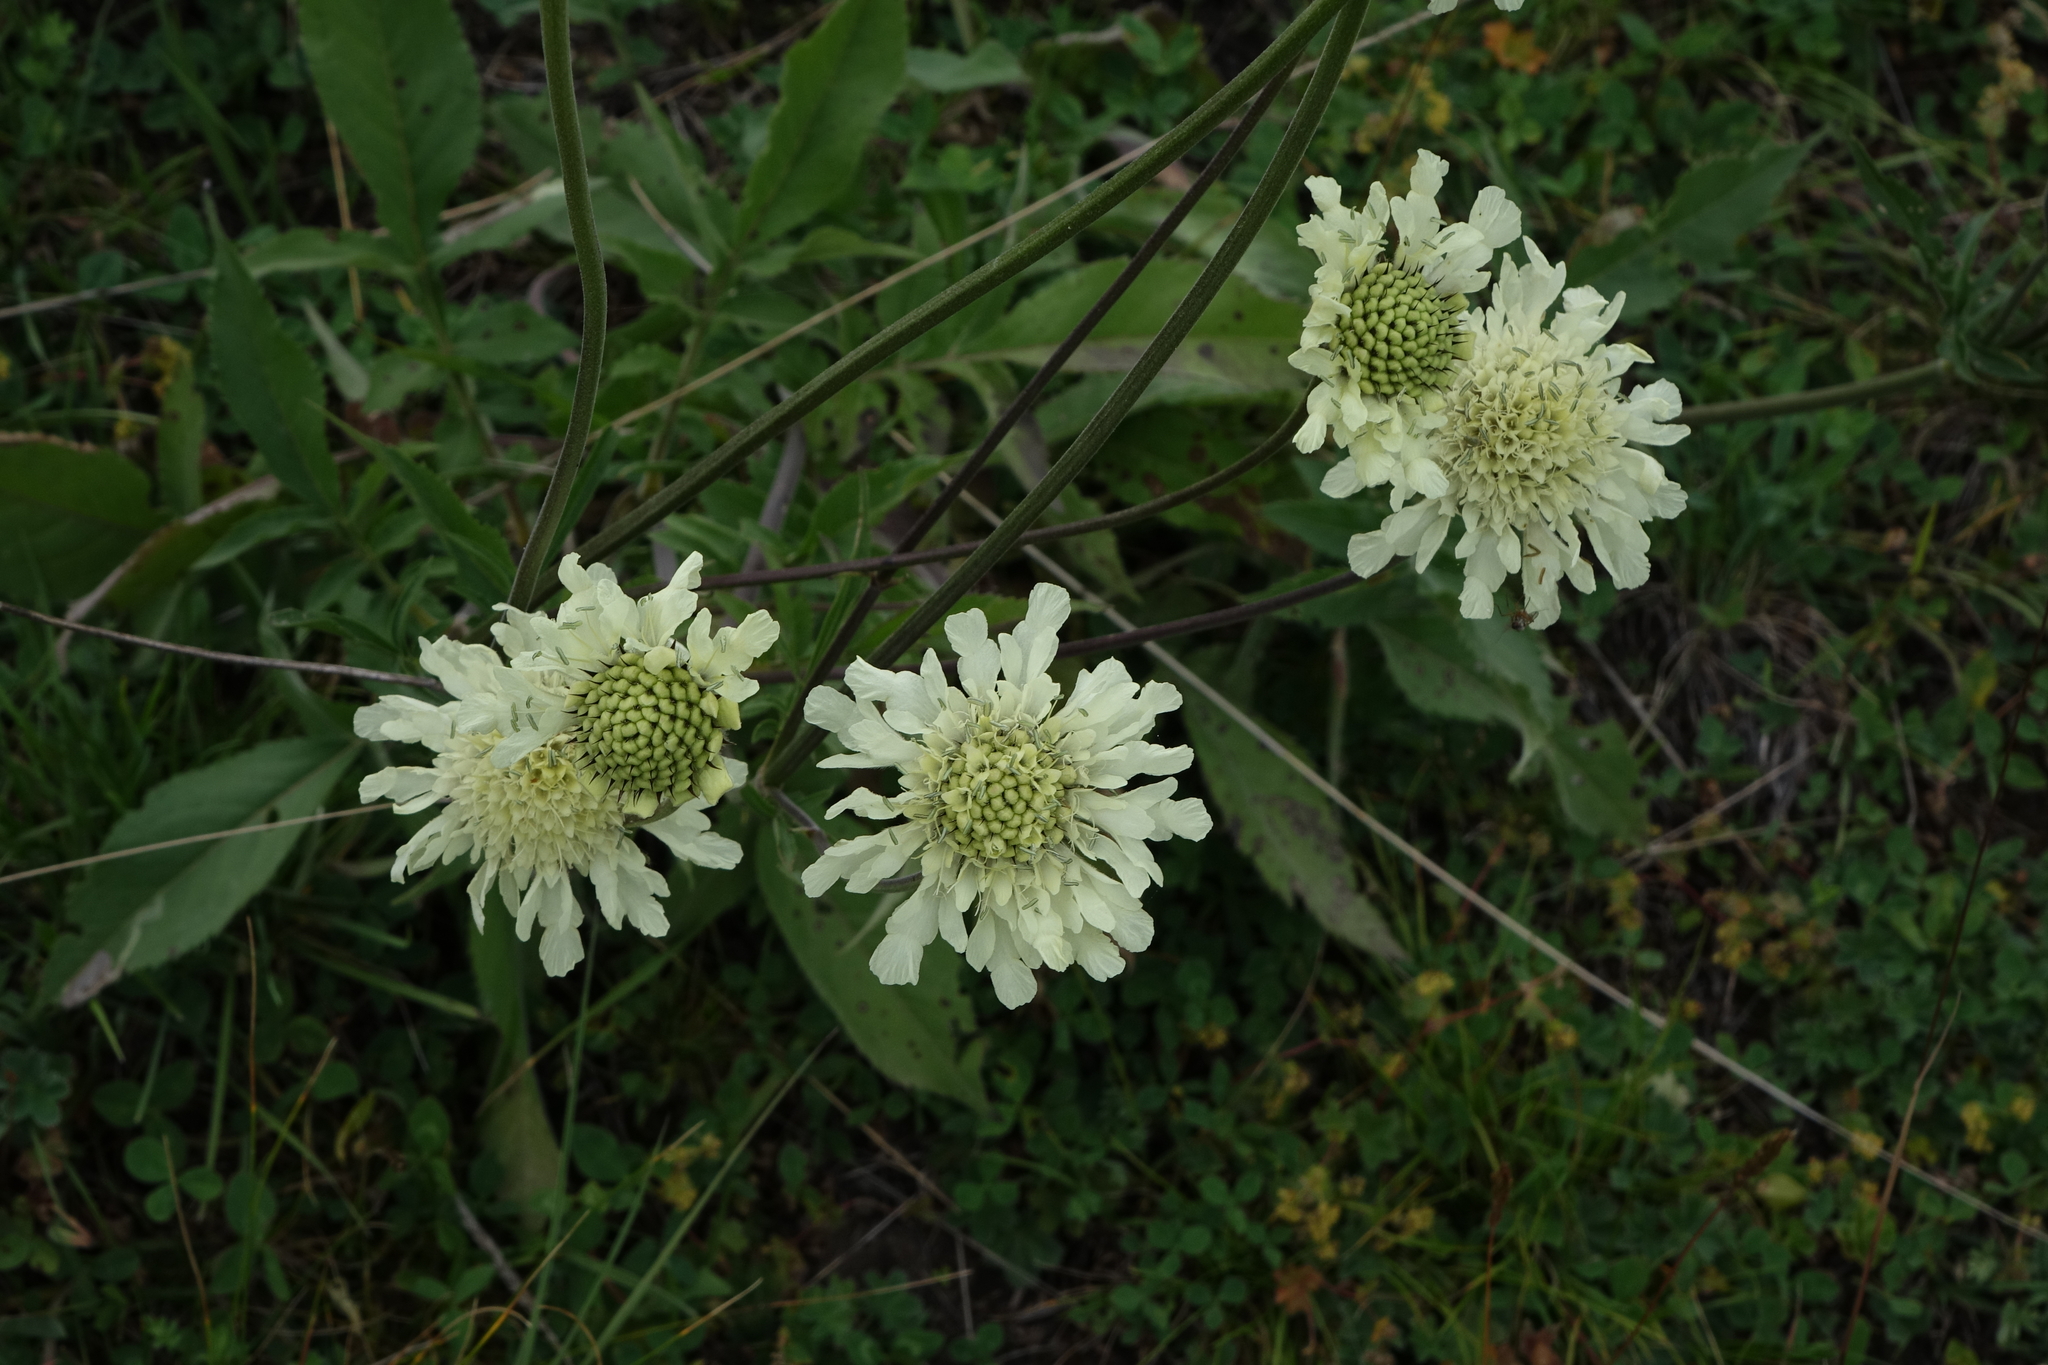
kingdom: Plantae
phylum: Tracheophyta
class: Magnoliopsida
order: Dipsacales
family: Caprifoliaceae
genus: Cephalaria
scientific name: Cephalaria gigantea
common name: Tatarian cephalaria
